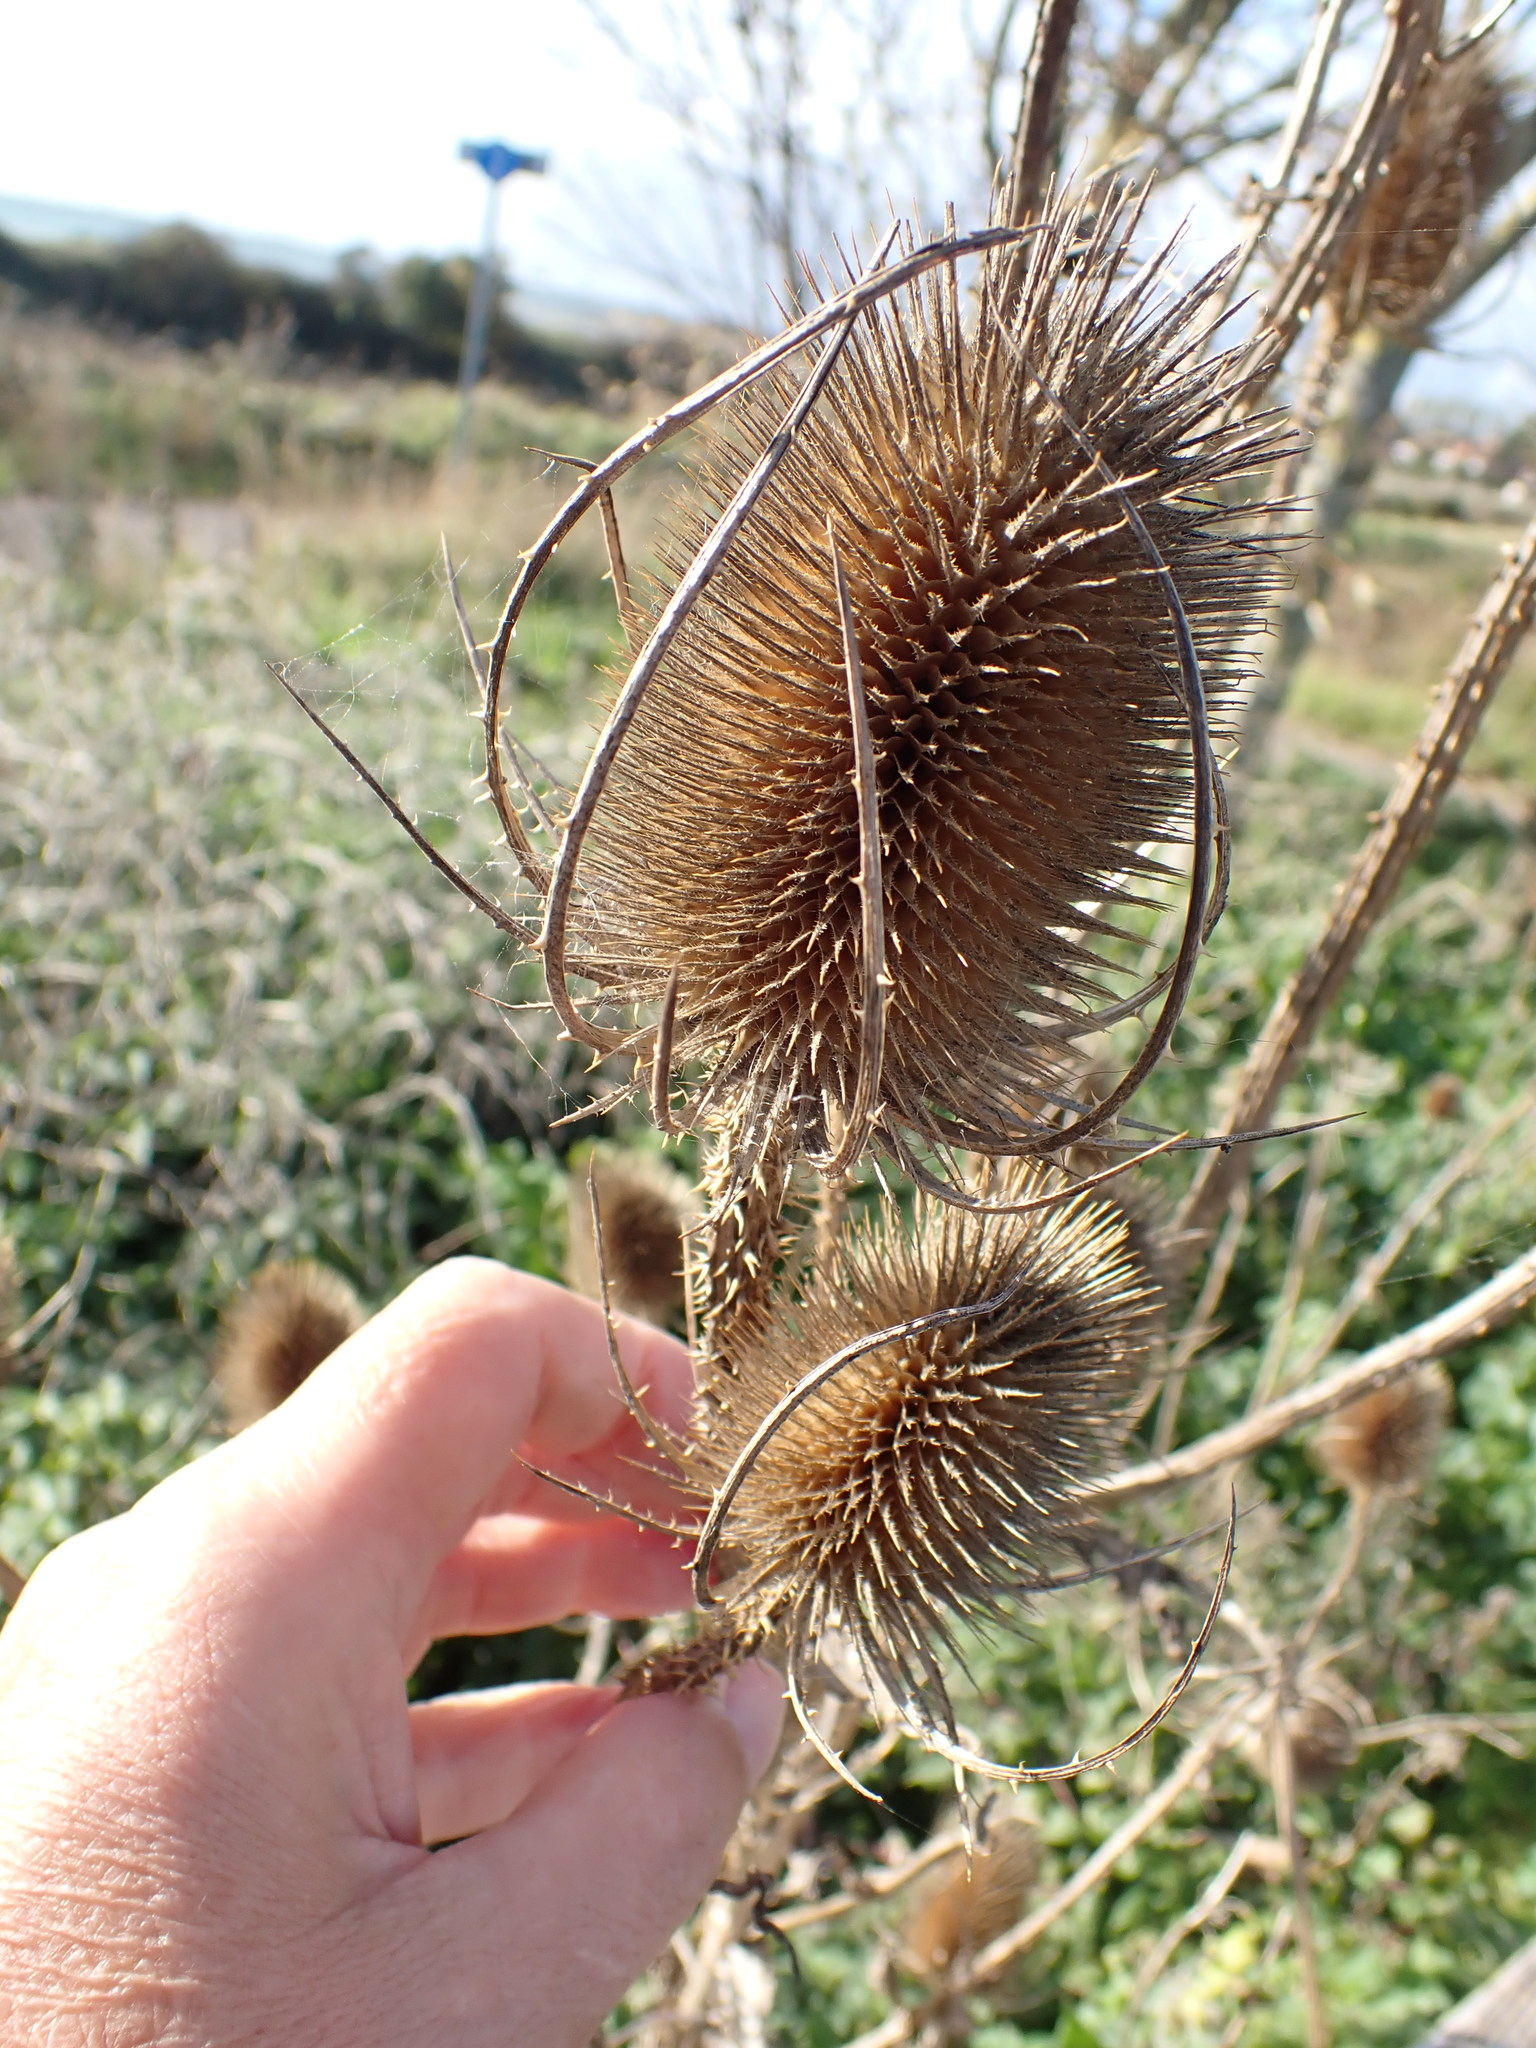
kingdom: Plantae
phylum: Tracheophyta
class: Magnoliopsida
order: Dipsacales
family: Caprifoliaceae
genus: Dipsacus
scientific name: Dipsacus fullonum
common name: Teasel
